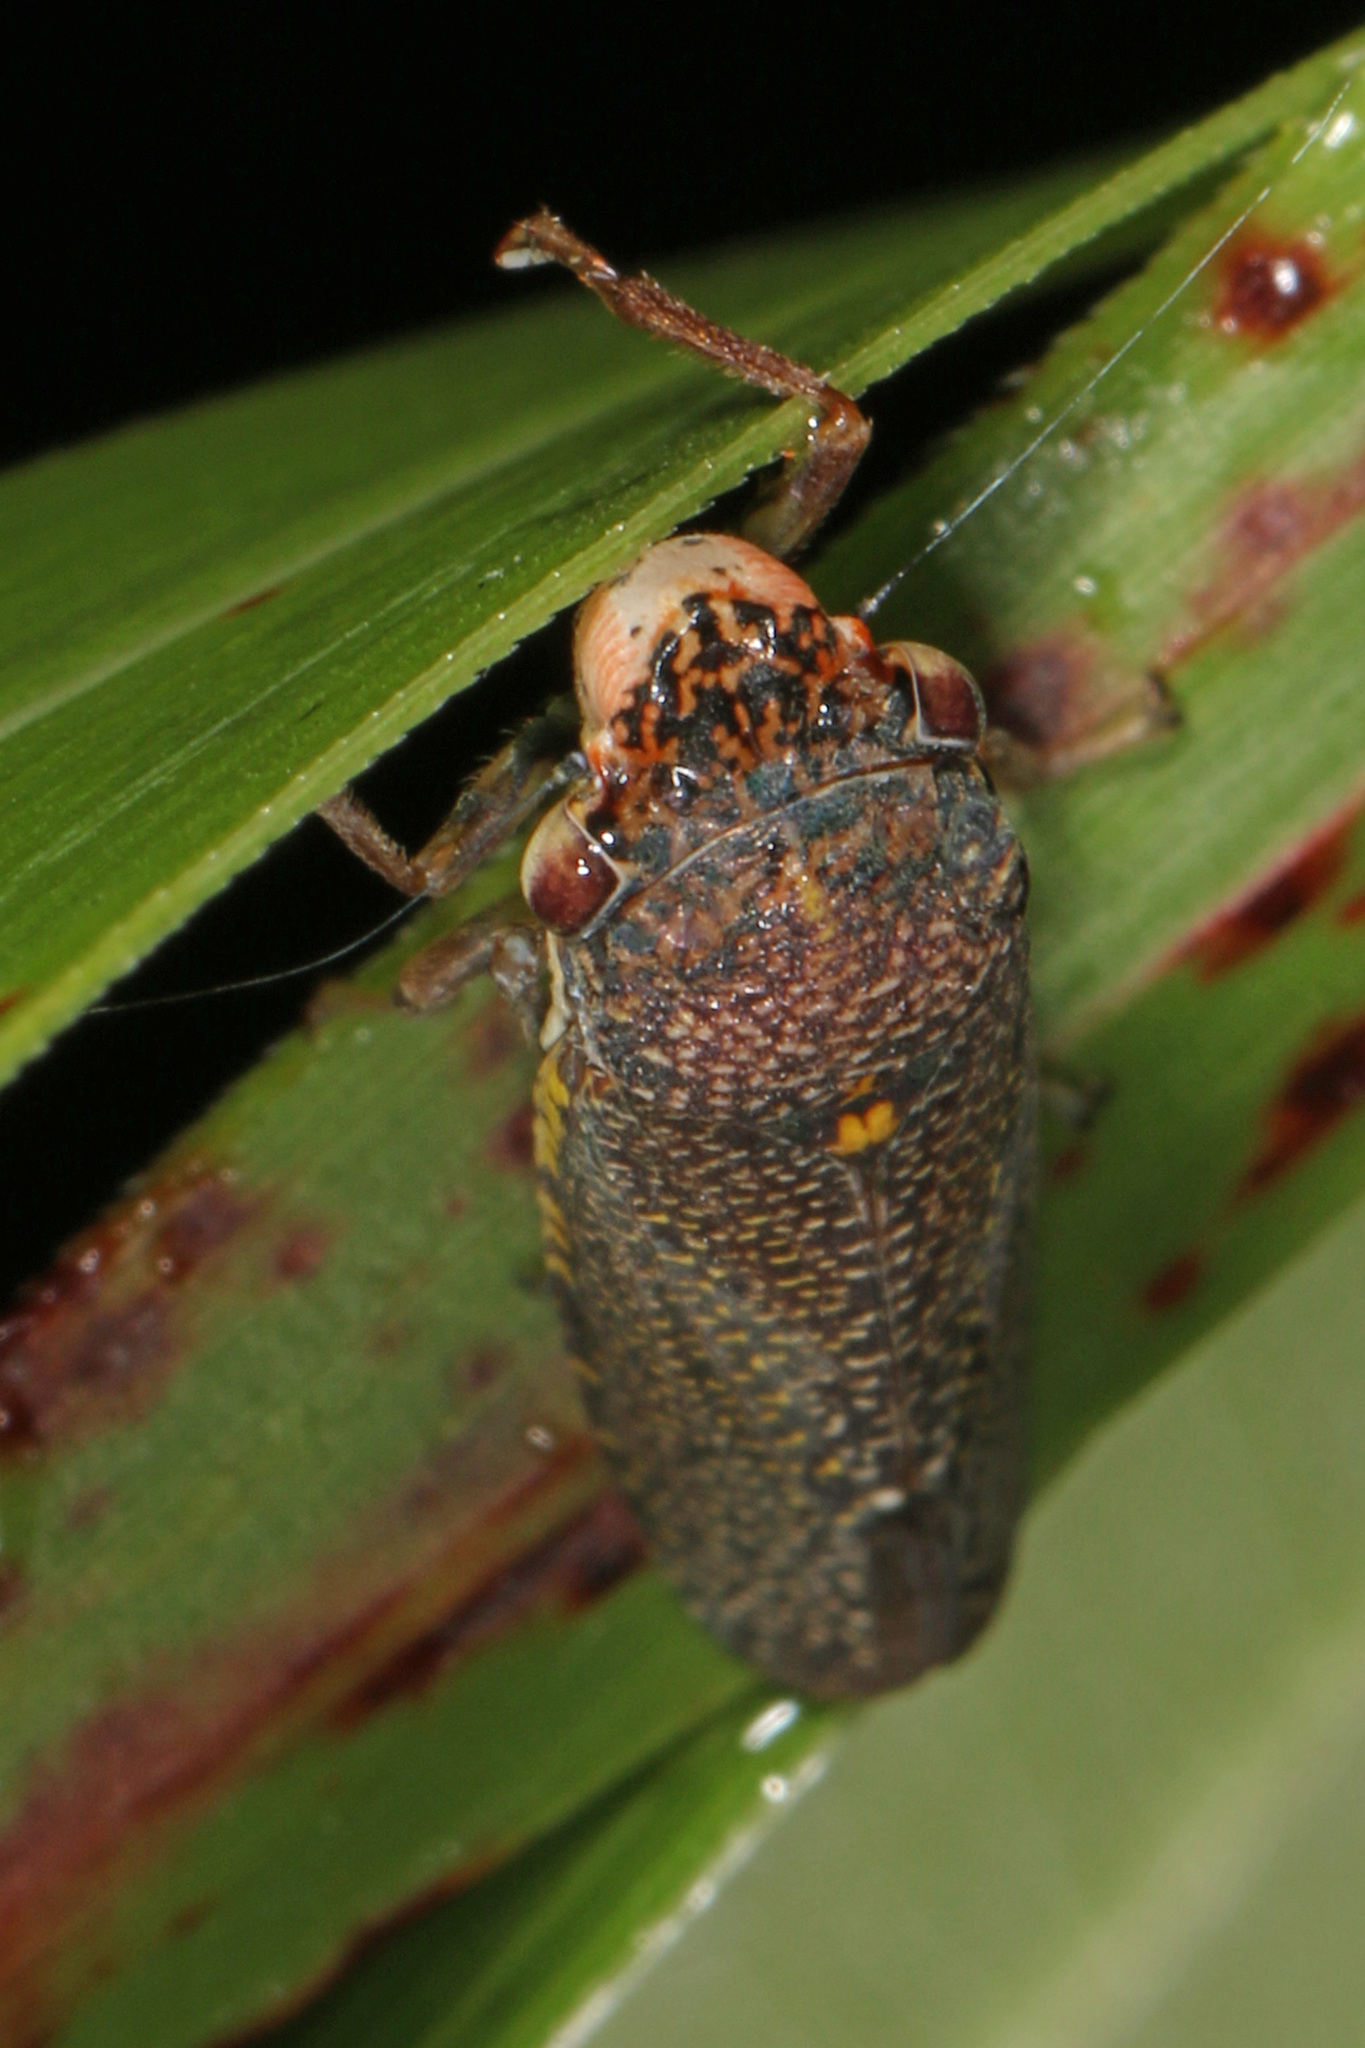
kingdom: Animalia
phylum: Arthropoda
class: Insecta
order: Hemiptera
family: Cicadellidae
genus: Paraulacizes
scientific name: Paraulacizes irrorata
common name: Speckled sharpshooter
